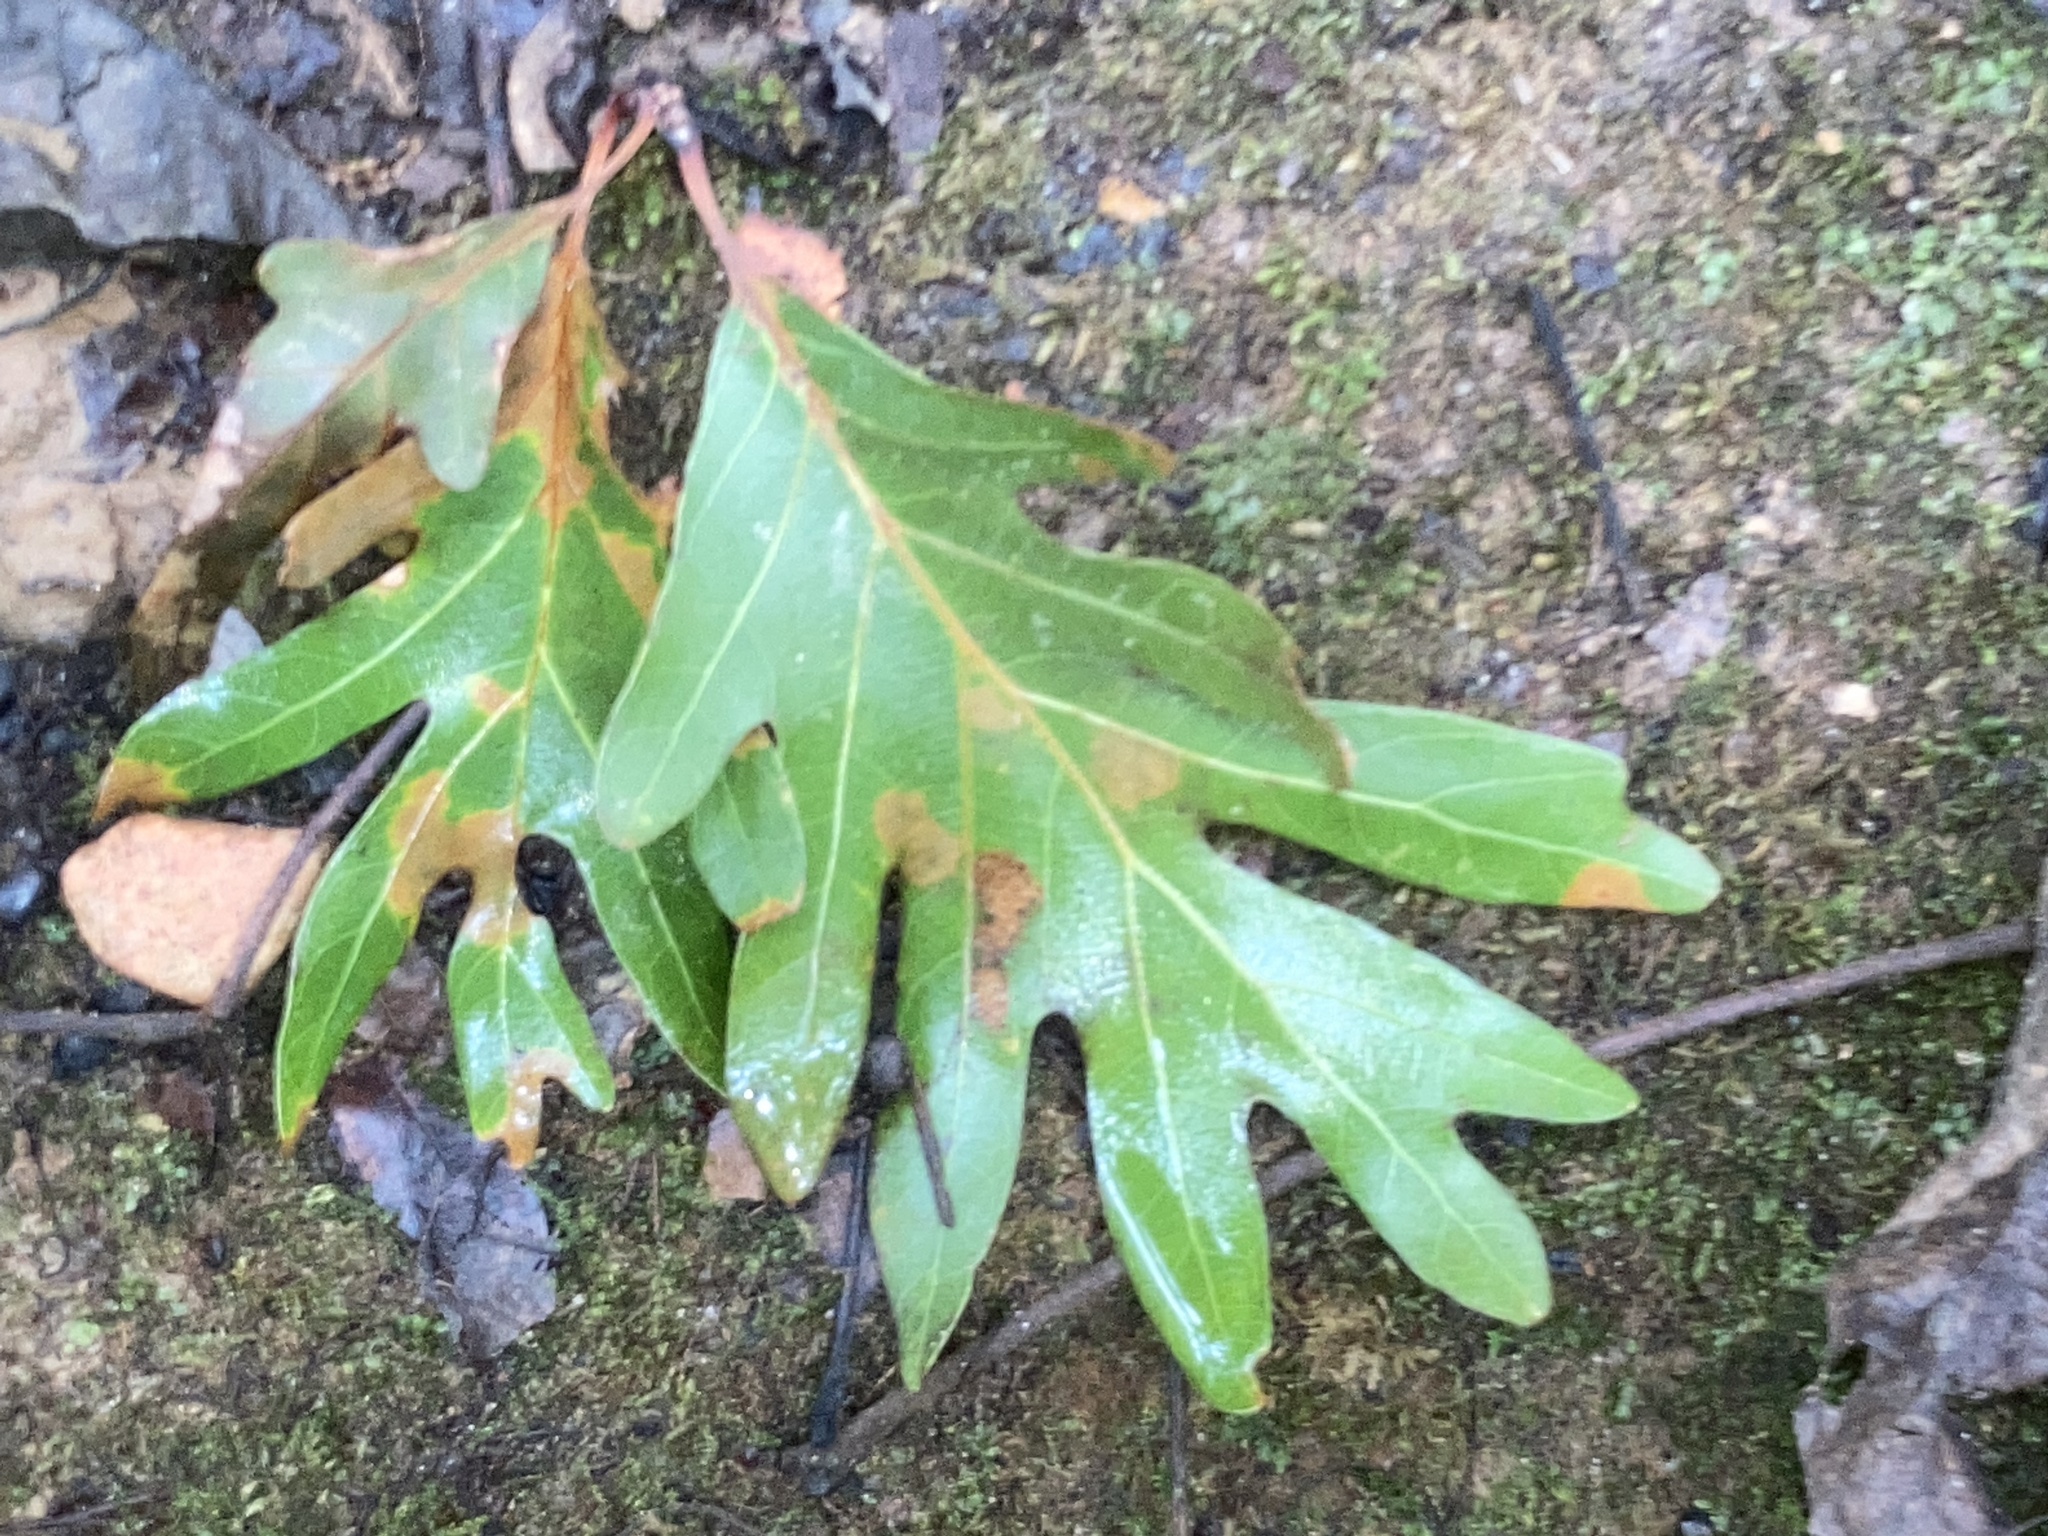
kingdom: Plantae
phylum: Tracheophyta
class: Magnoliopsida
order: Fagales
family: Fagaceae
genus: Quercus
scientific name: Quercus alba
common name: White oak
